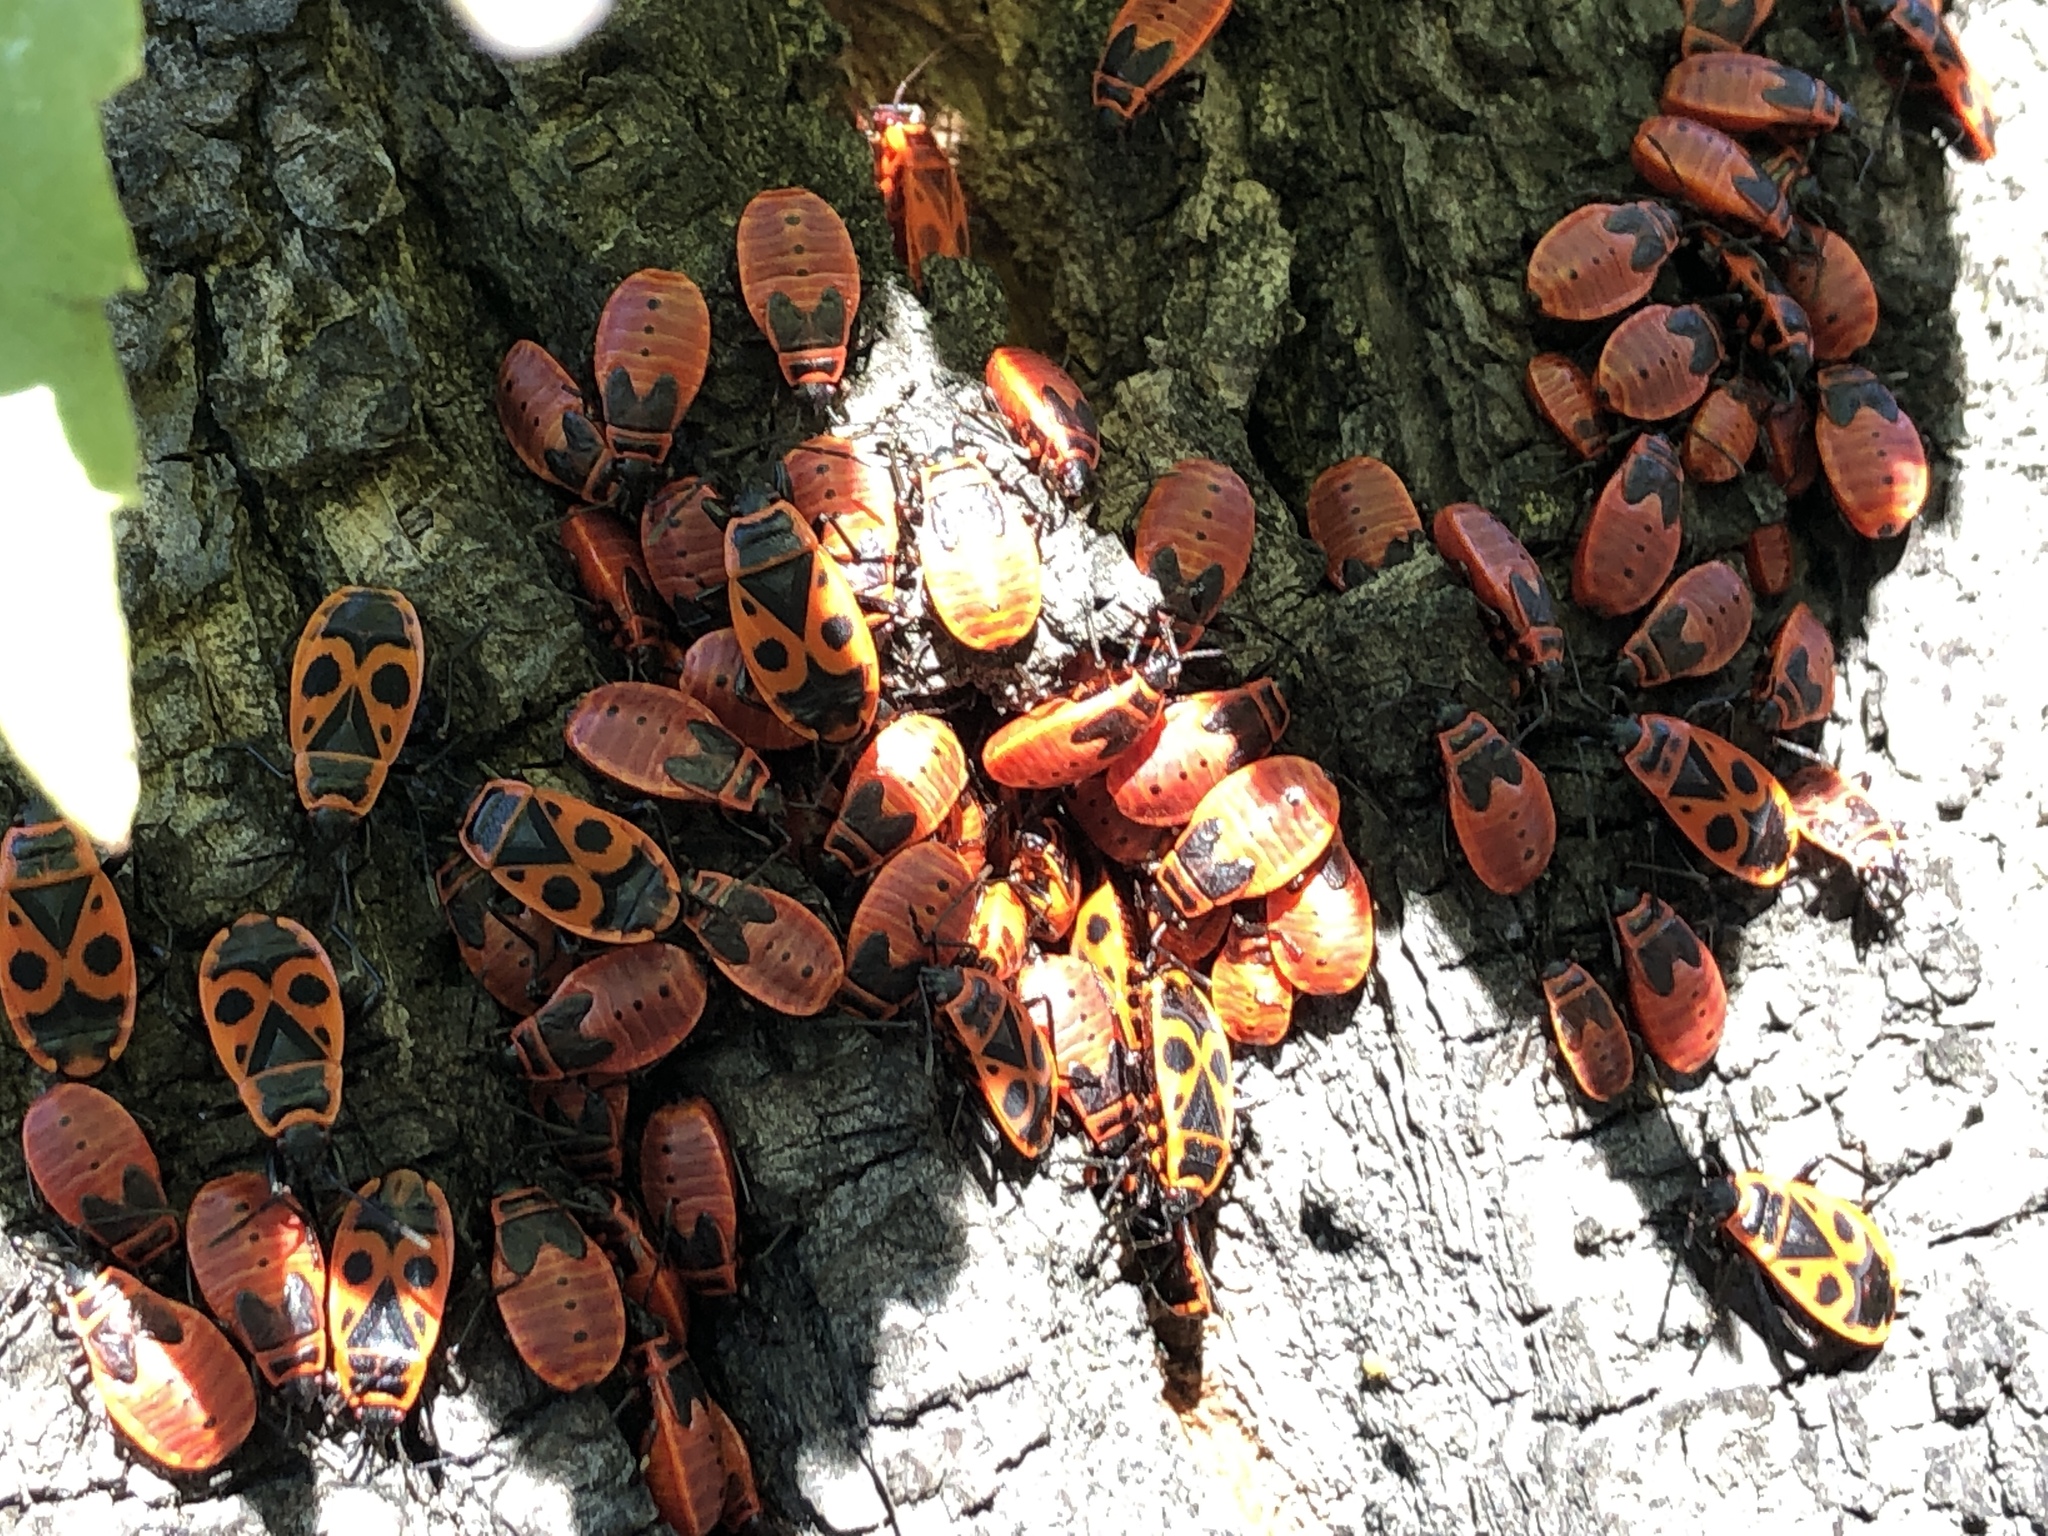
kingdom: Animalia
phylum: Arthropoda
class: Insecta
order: Hemiptera
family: Pyrrhocoridae
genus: Pyrrhocoris
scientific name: Pyrrhocoris apterus
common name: Firebug
